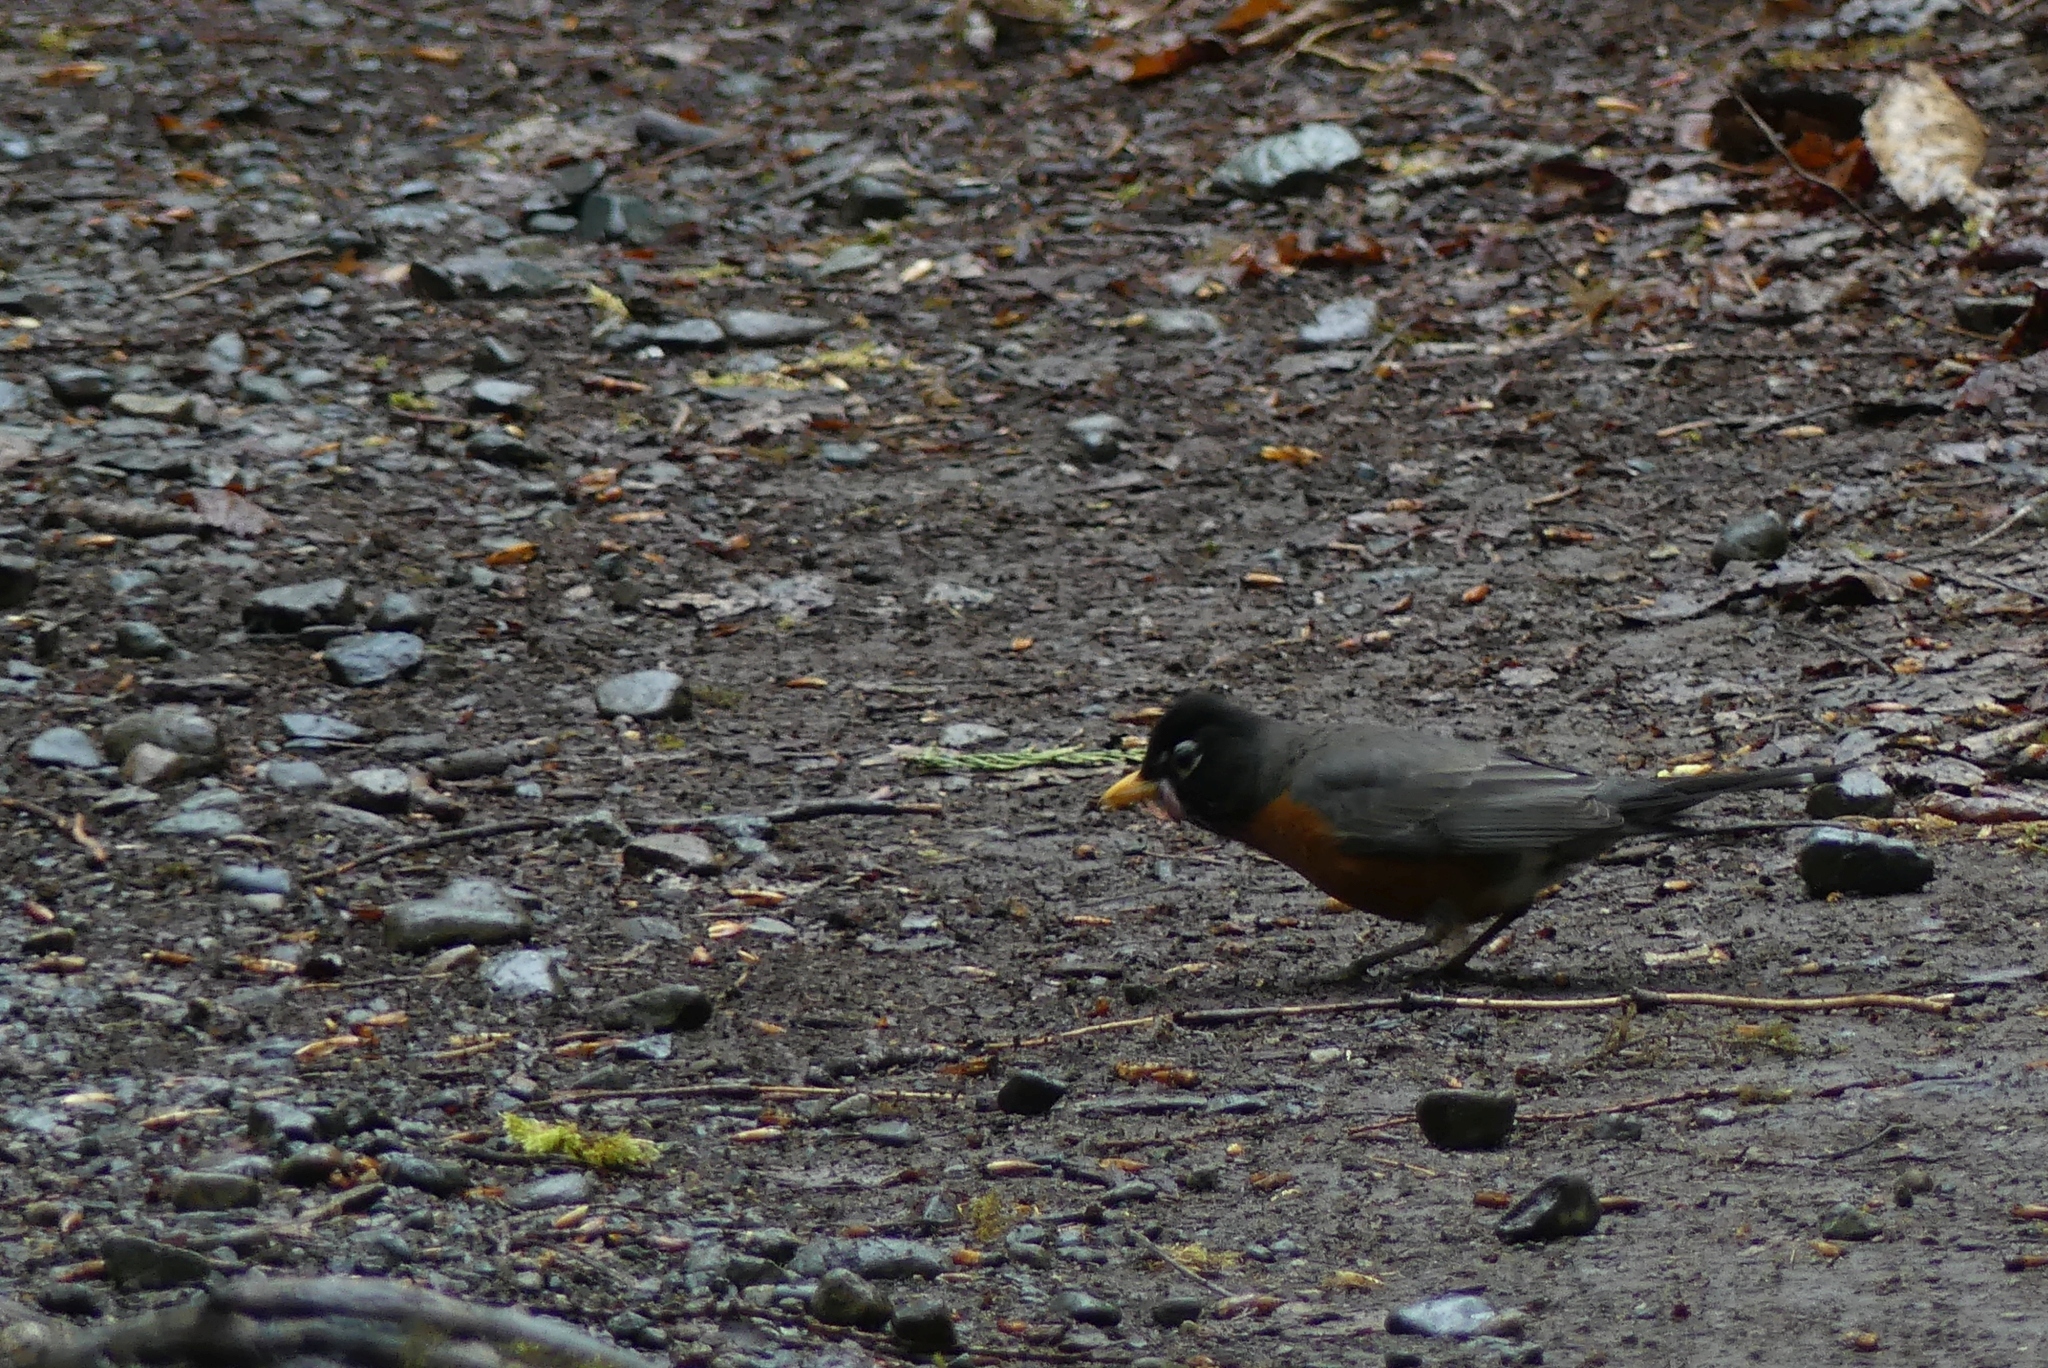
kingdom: Animalia
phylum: Chordata
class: Aves
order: Passeriformes
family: Turdidae
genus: Turdus
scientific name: Turdus migratorius
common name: American robin
